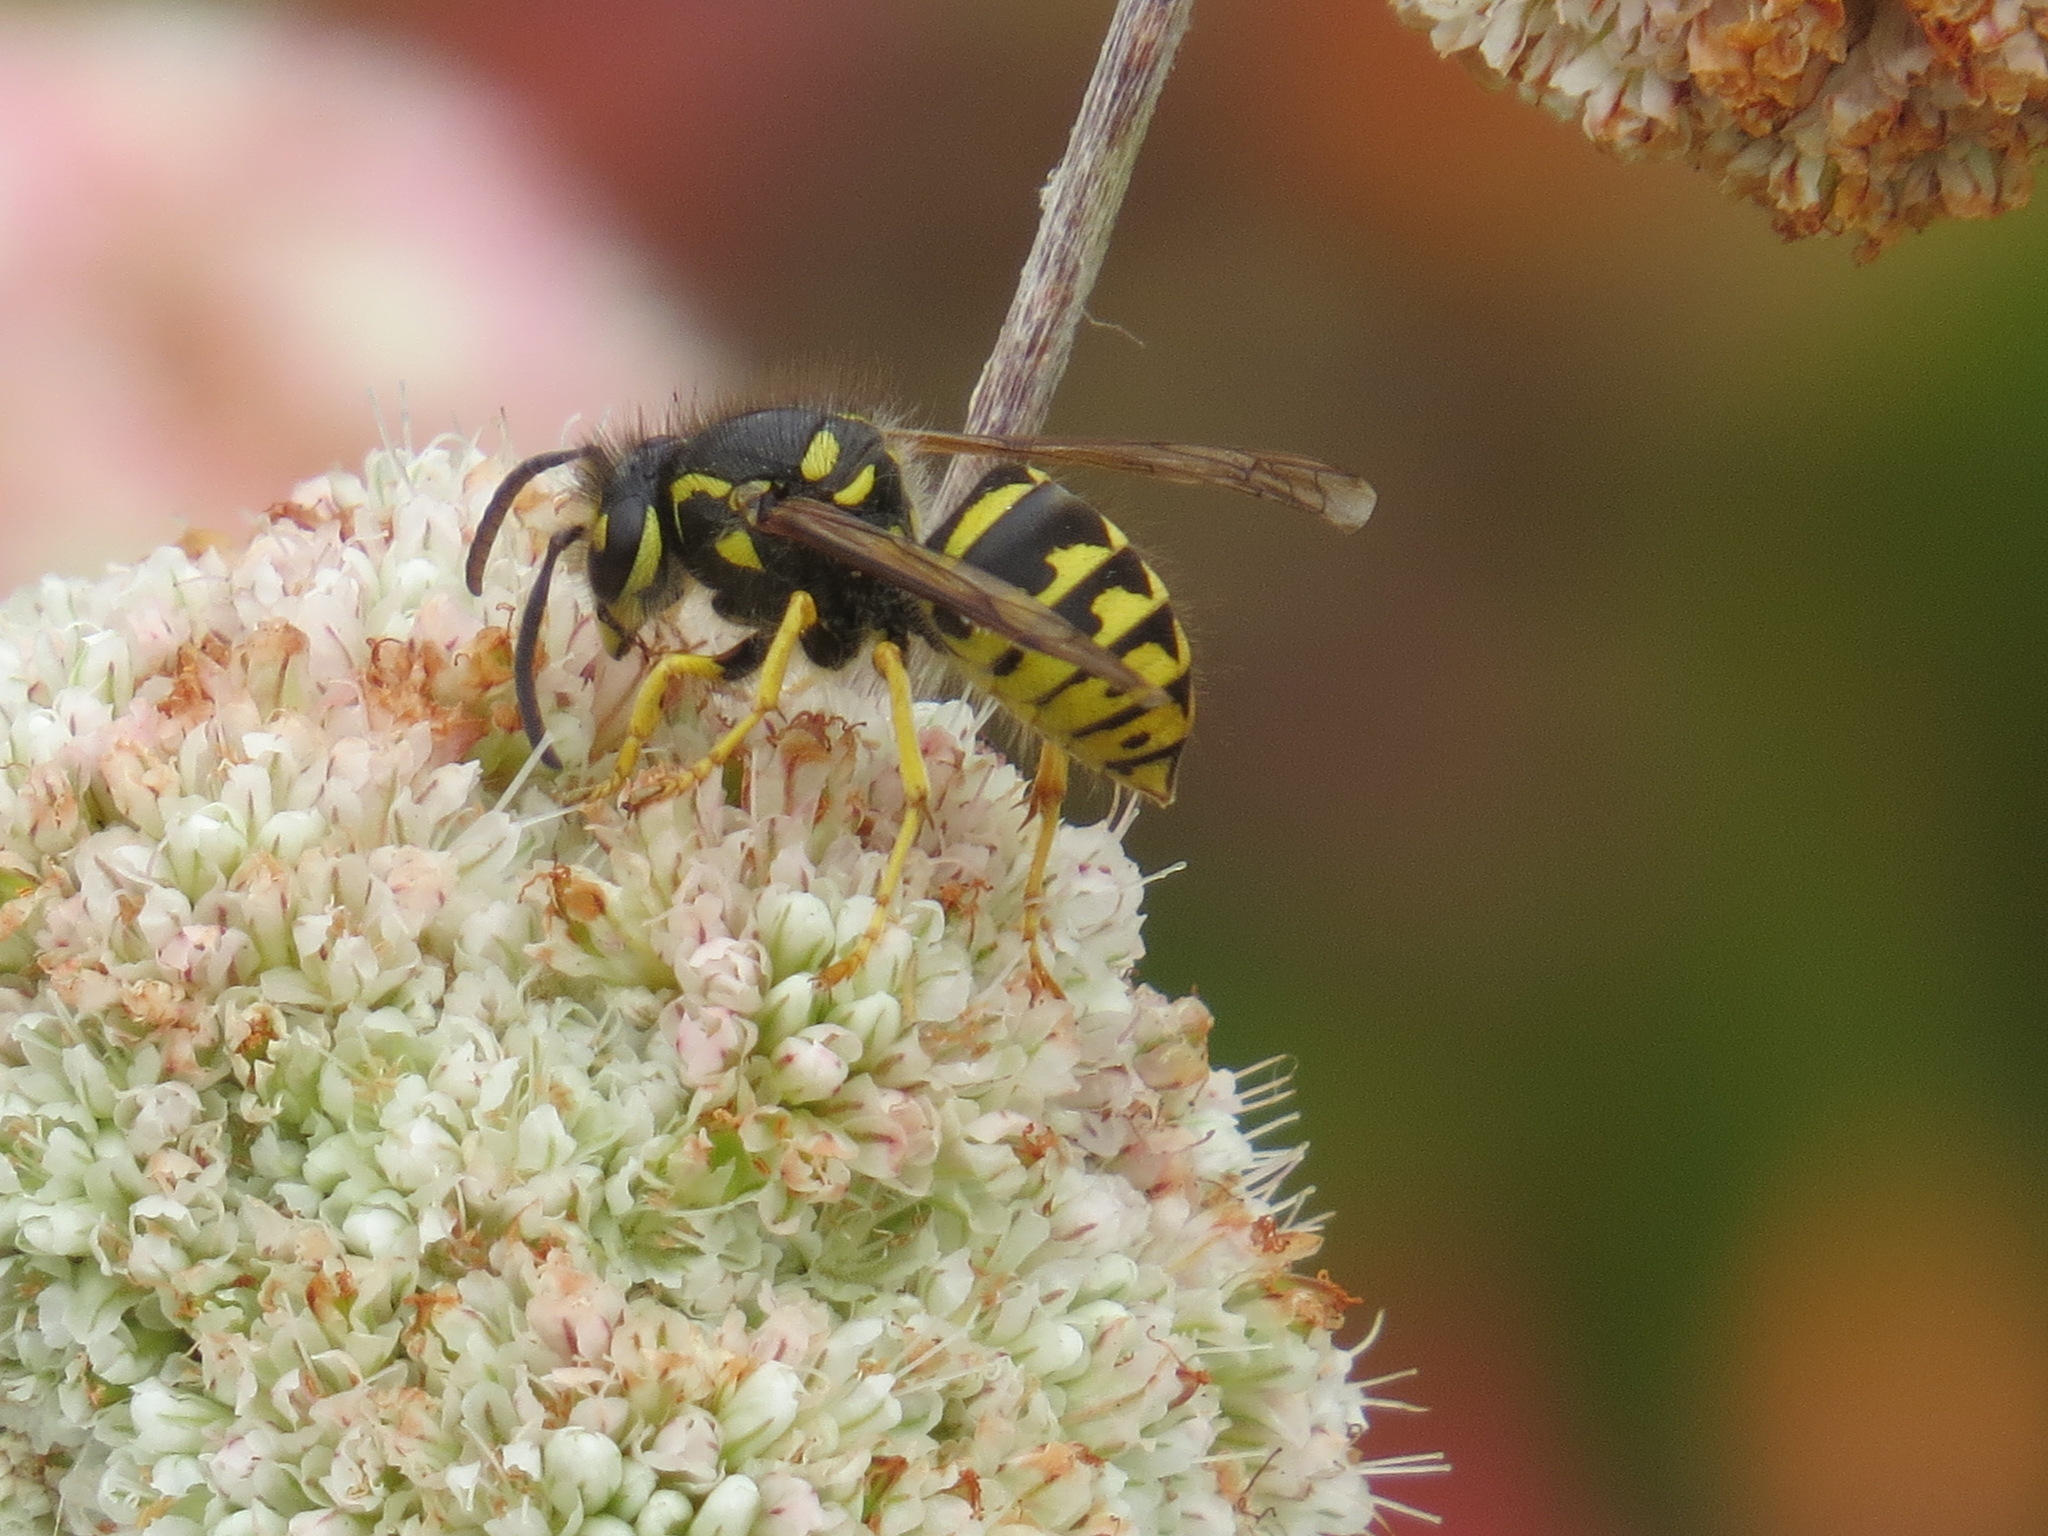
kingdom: Animalia
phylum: Arthropoda
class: Insecta
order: Hymenoptera
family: Vespidae
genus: Dolichovespula
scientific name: Dolichovespula arenaria
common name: Aerial yellowjacket
